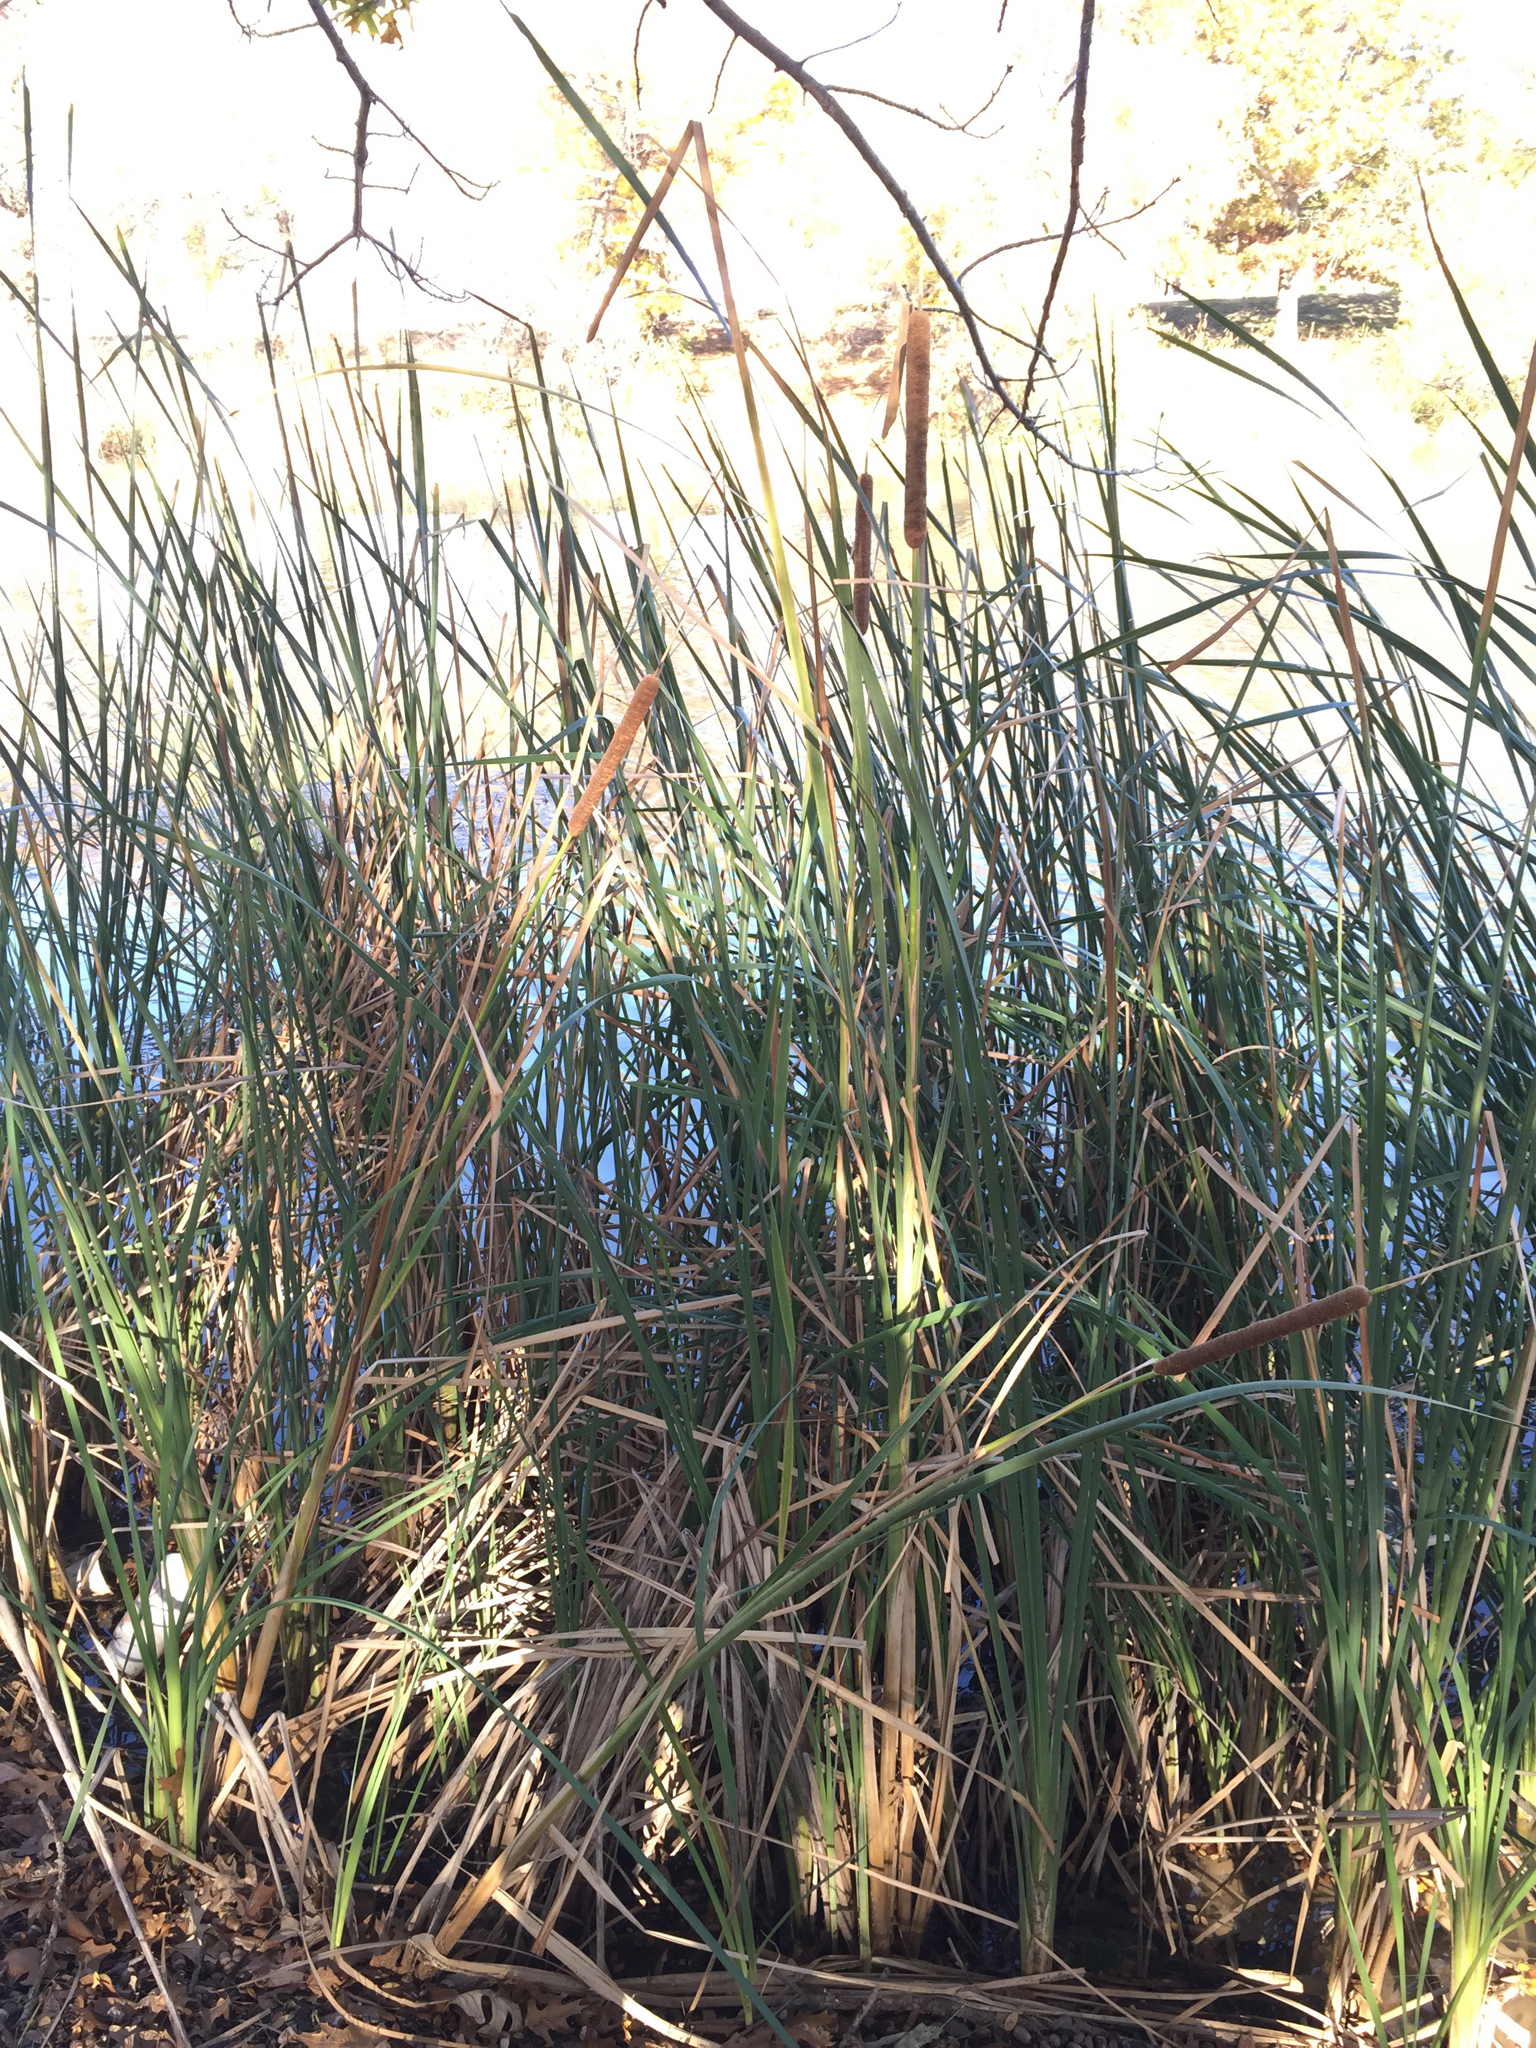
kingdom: Plantae
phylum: Tracheophyta
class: Liliopsida
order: Poales
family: Typhaceae
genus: Typha
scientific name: Typha domingensis
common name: Southern cattail
